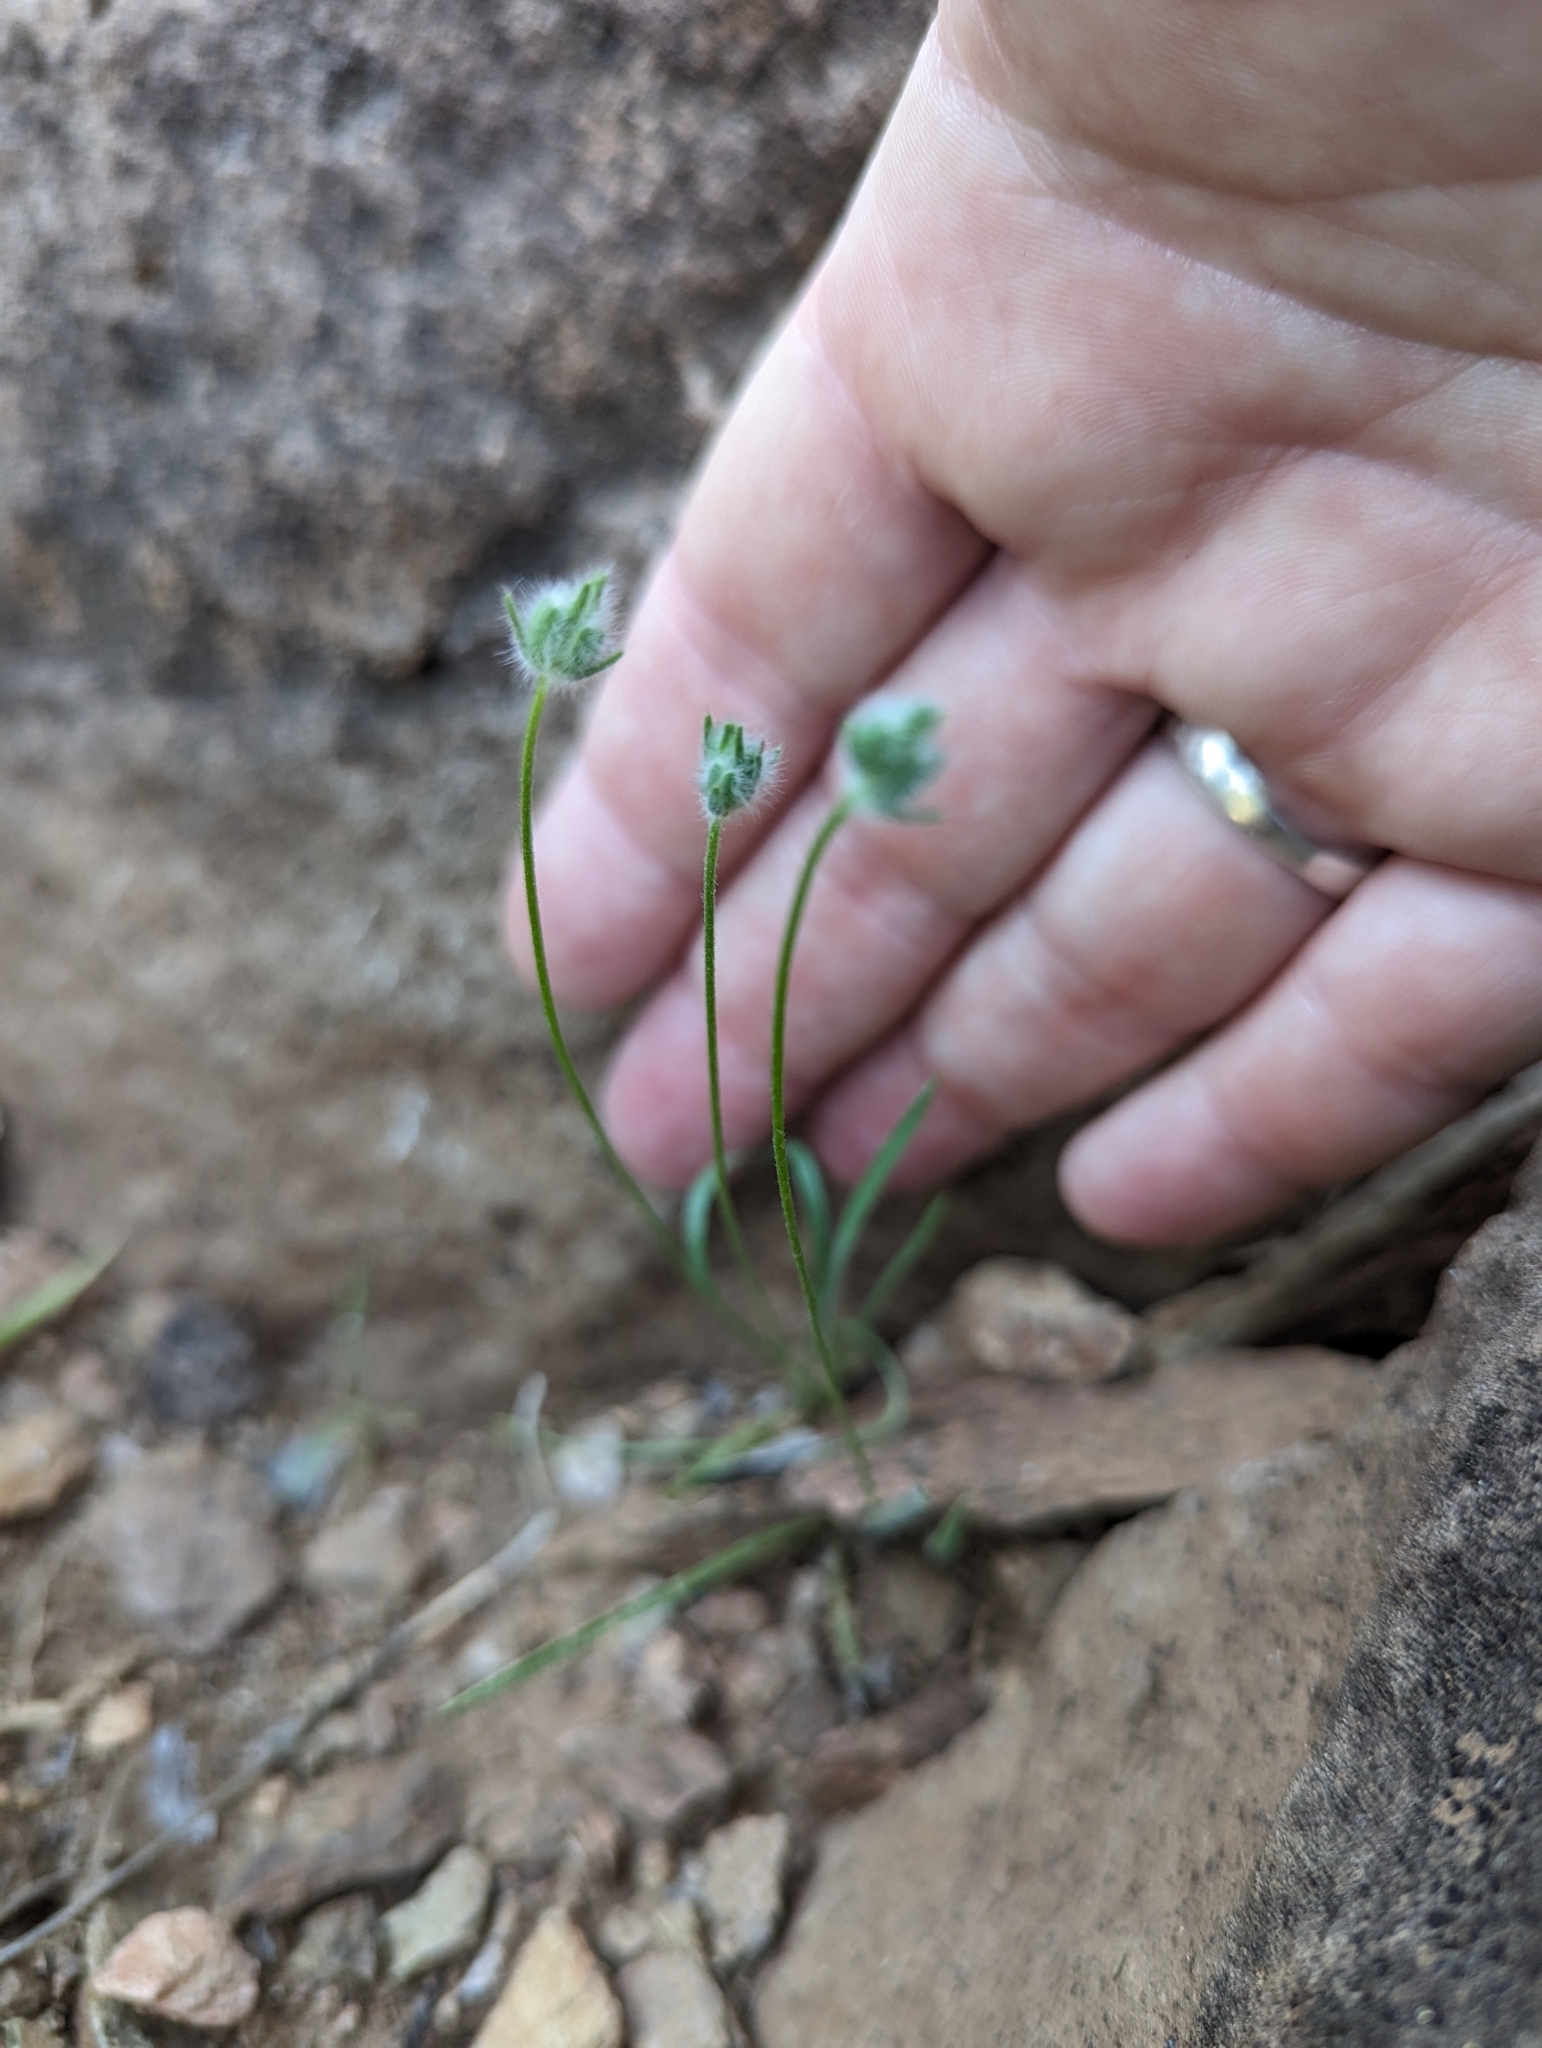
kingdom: Plantae
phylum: Tracheophyta
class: Magnoliopsida
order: Lamiales
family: Plantaginaceae
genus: Plantago
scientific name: Plantago patagonica
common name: Patagonia indian-wheat
